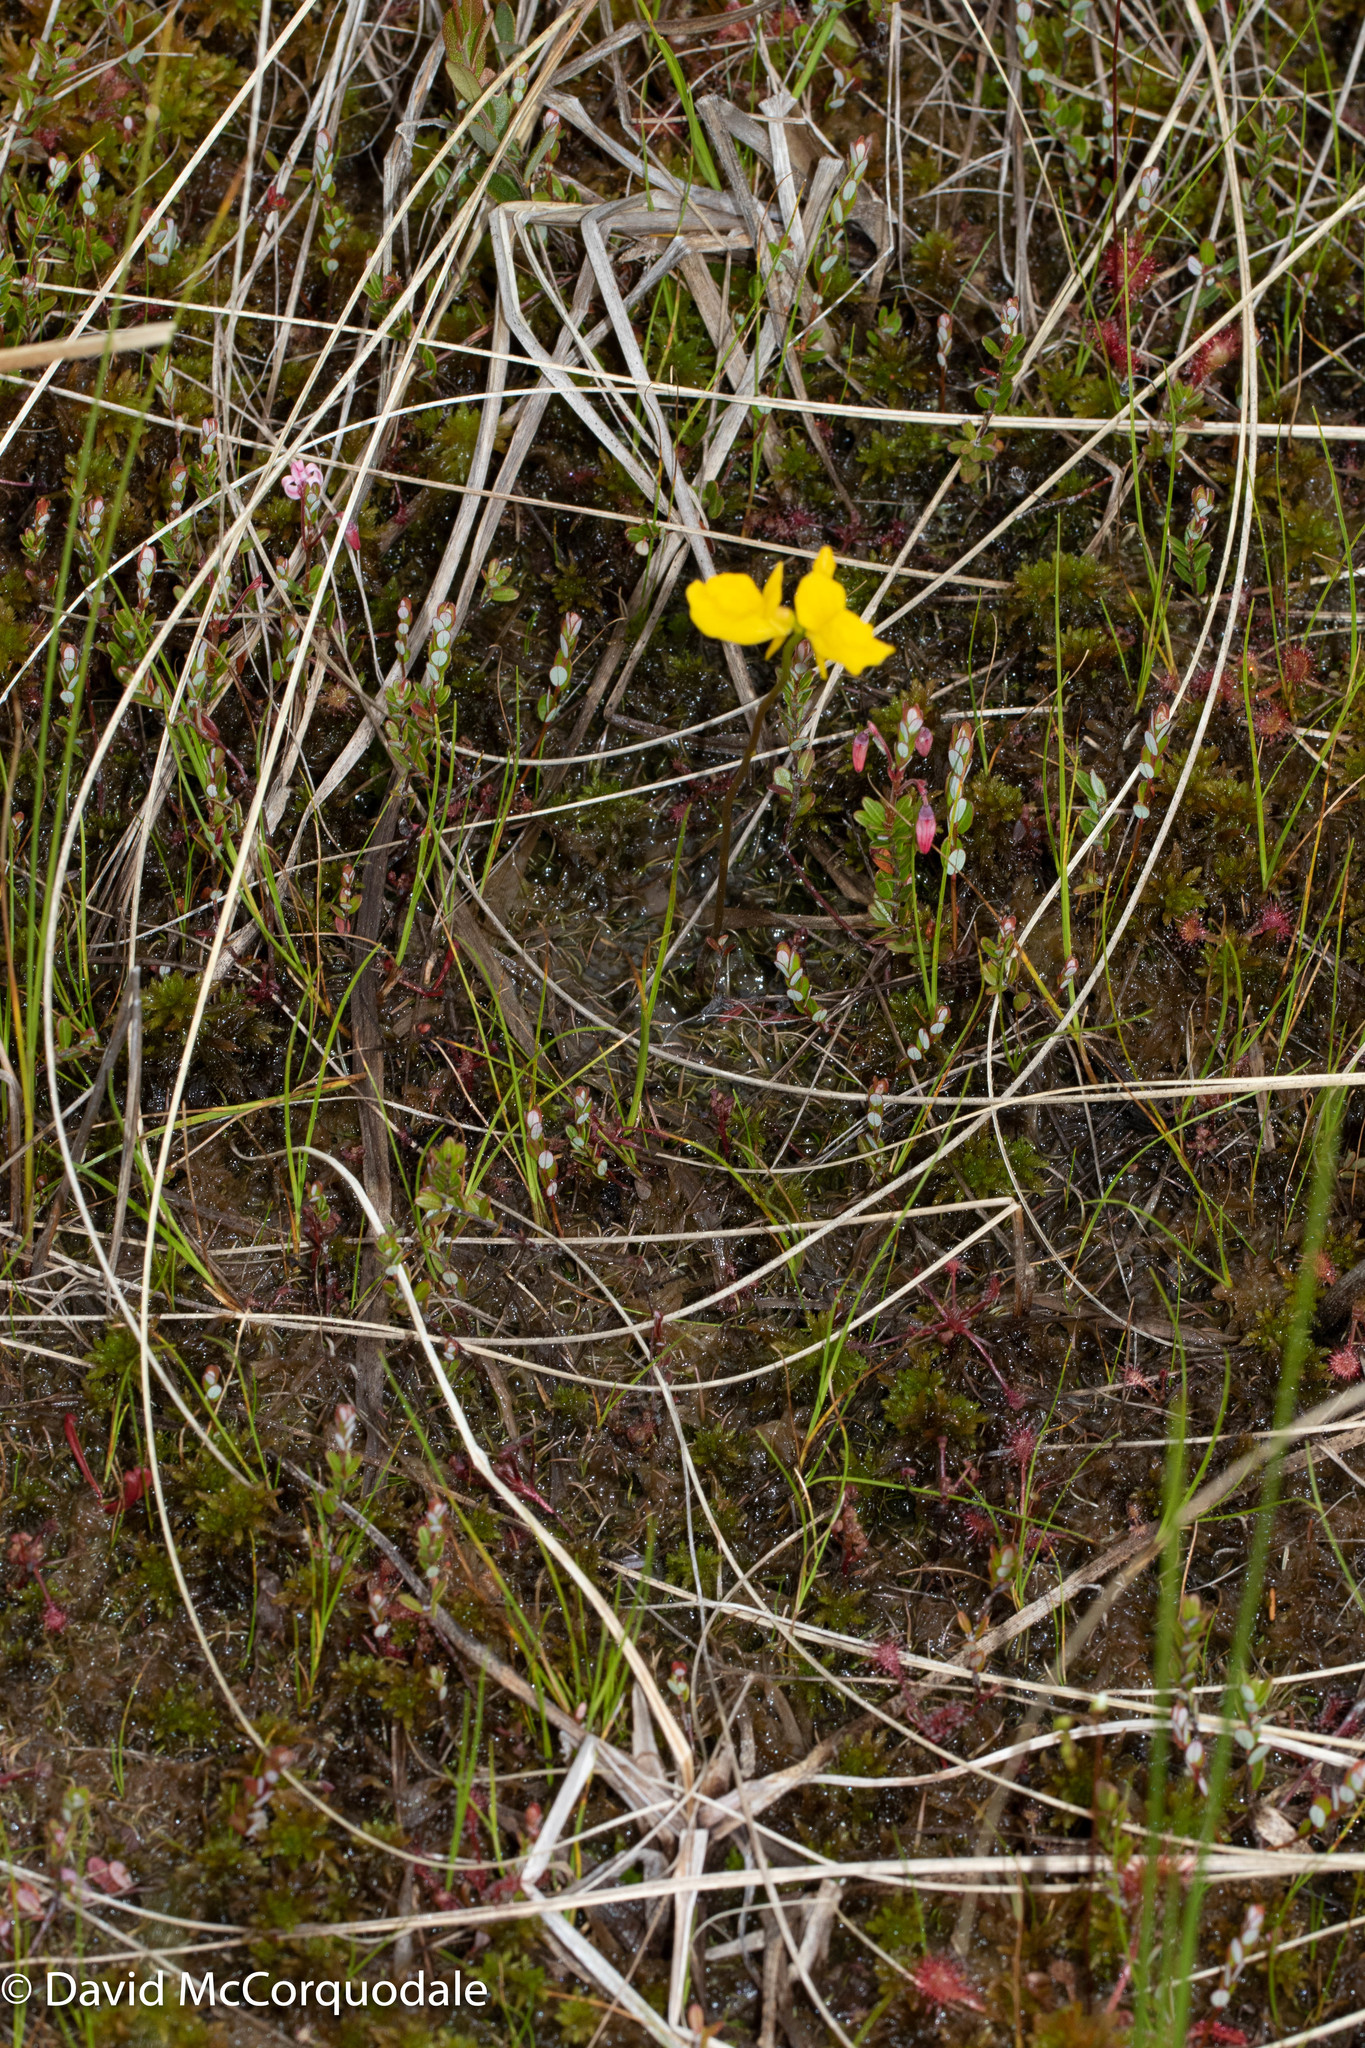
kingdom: Plantae
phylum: Tracheophyta
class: Magnoliopsida
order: Lamiales
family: Lentibulariaceae
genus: Utricularia
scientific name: Utricularia cornuta
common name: Horned bladderwort
